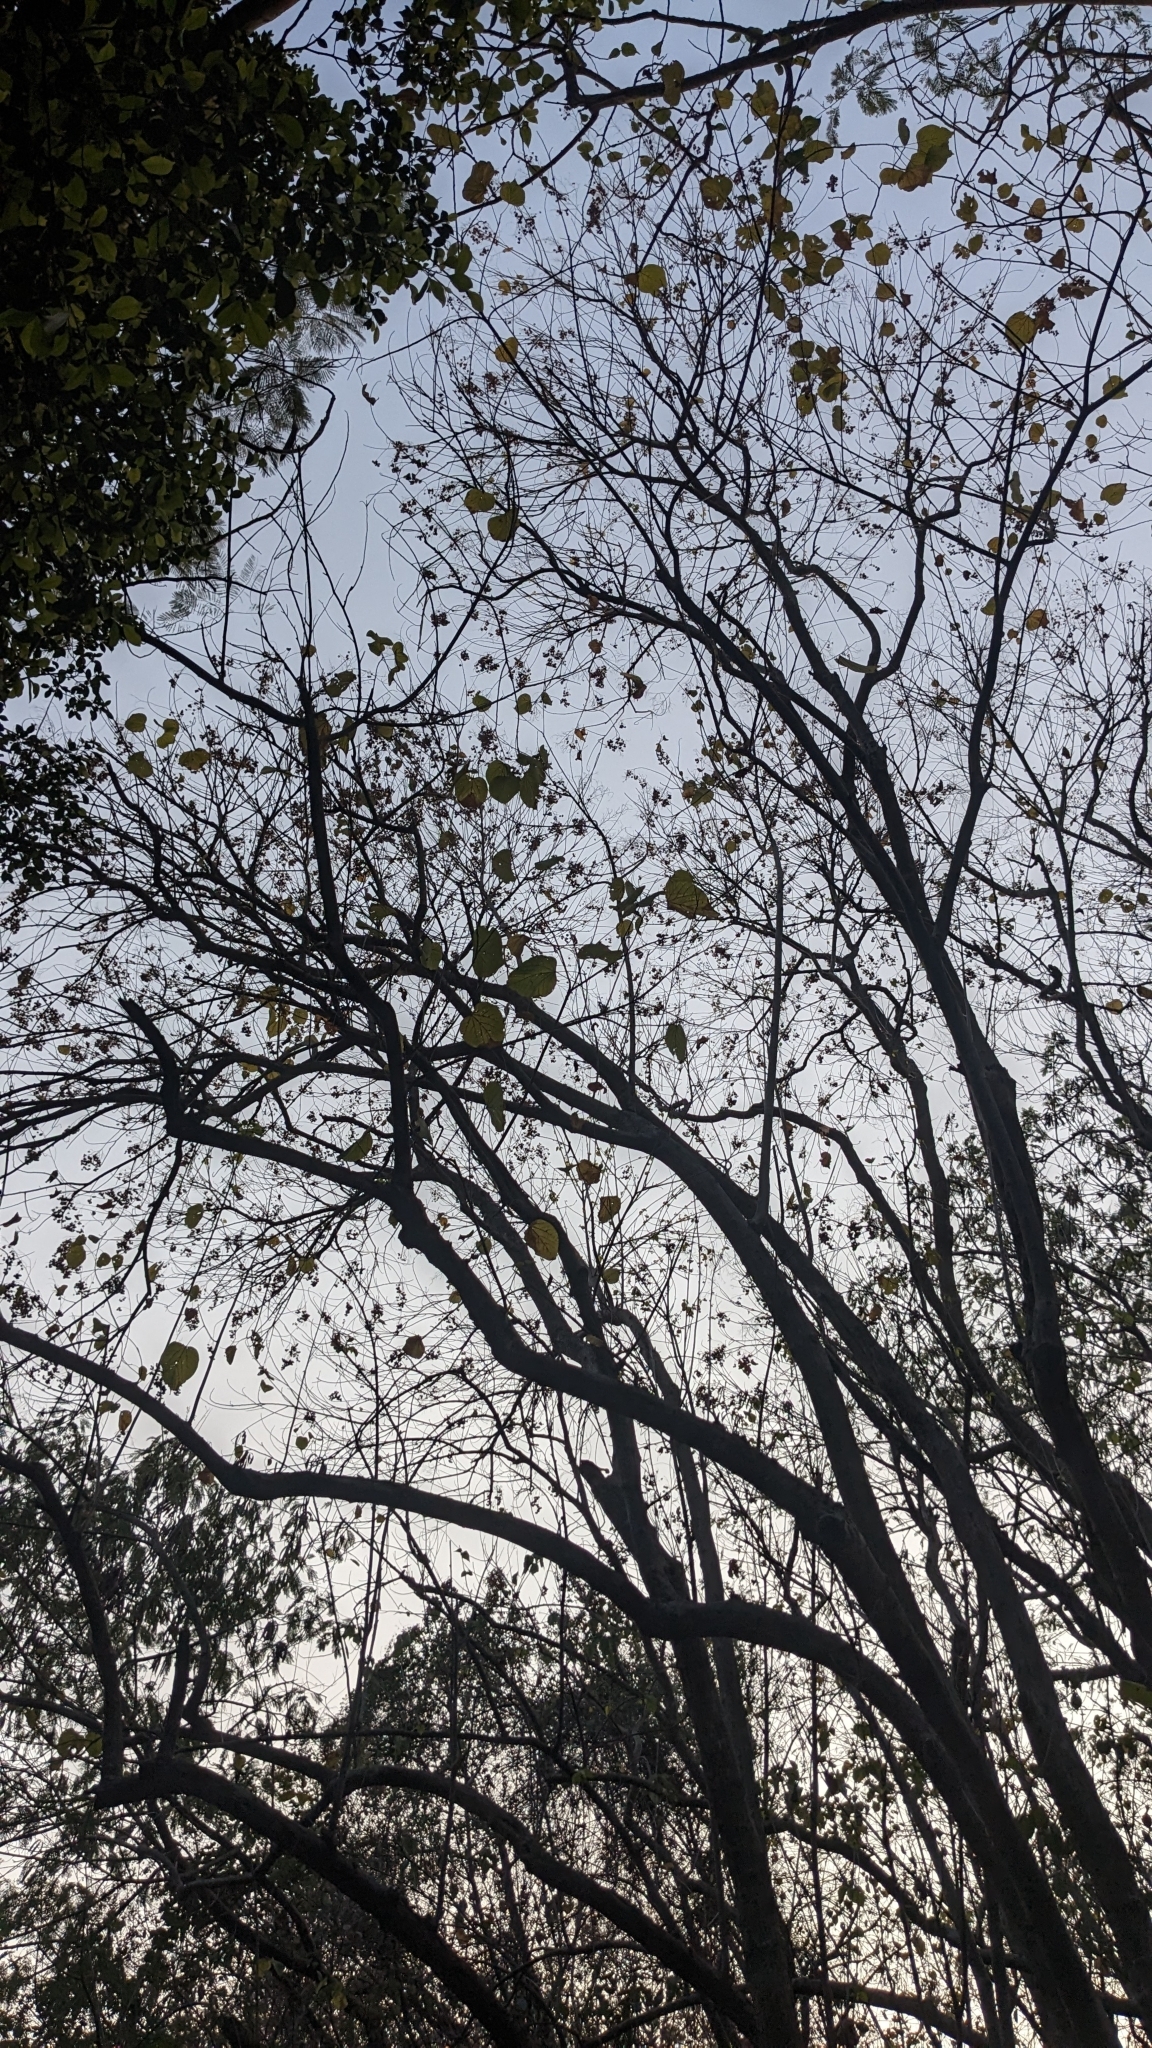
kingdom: Plantae
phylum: Tracheophyta
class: Magnoliopsida
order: Malvales
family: Malvaceae
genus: Kleinhovia
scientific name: Kleinhovia hospita
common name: Guest-tree
